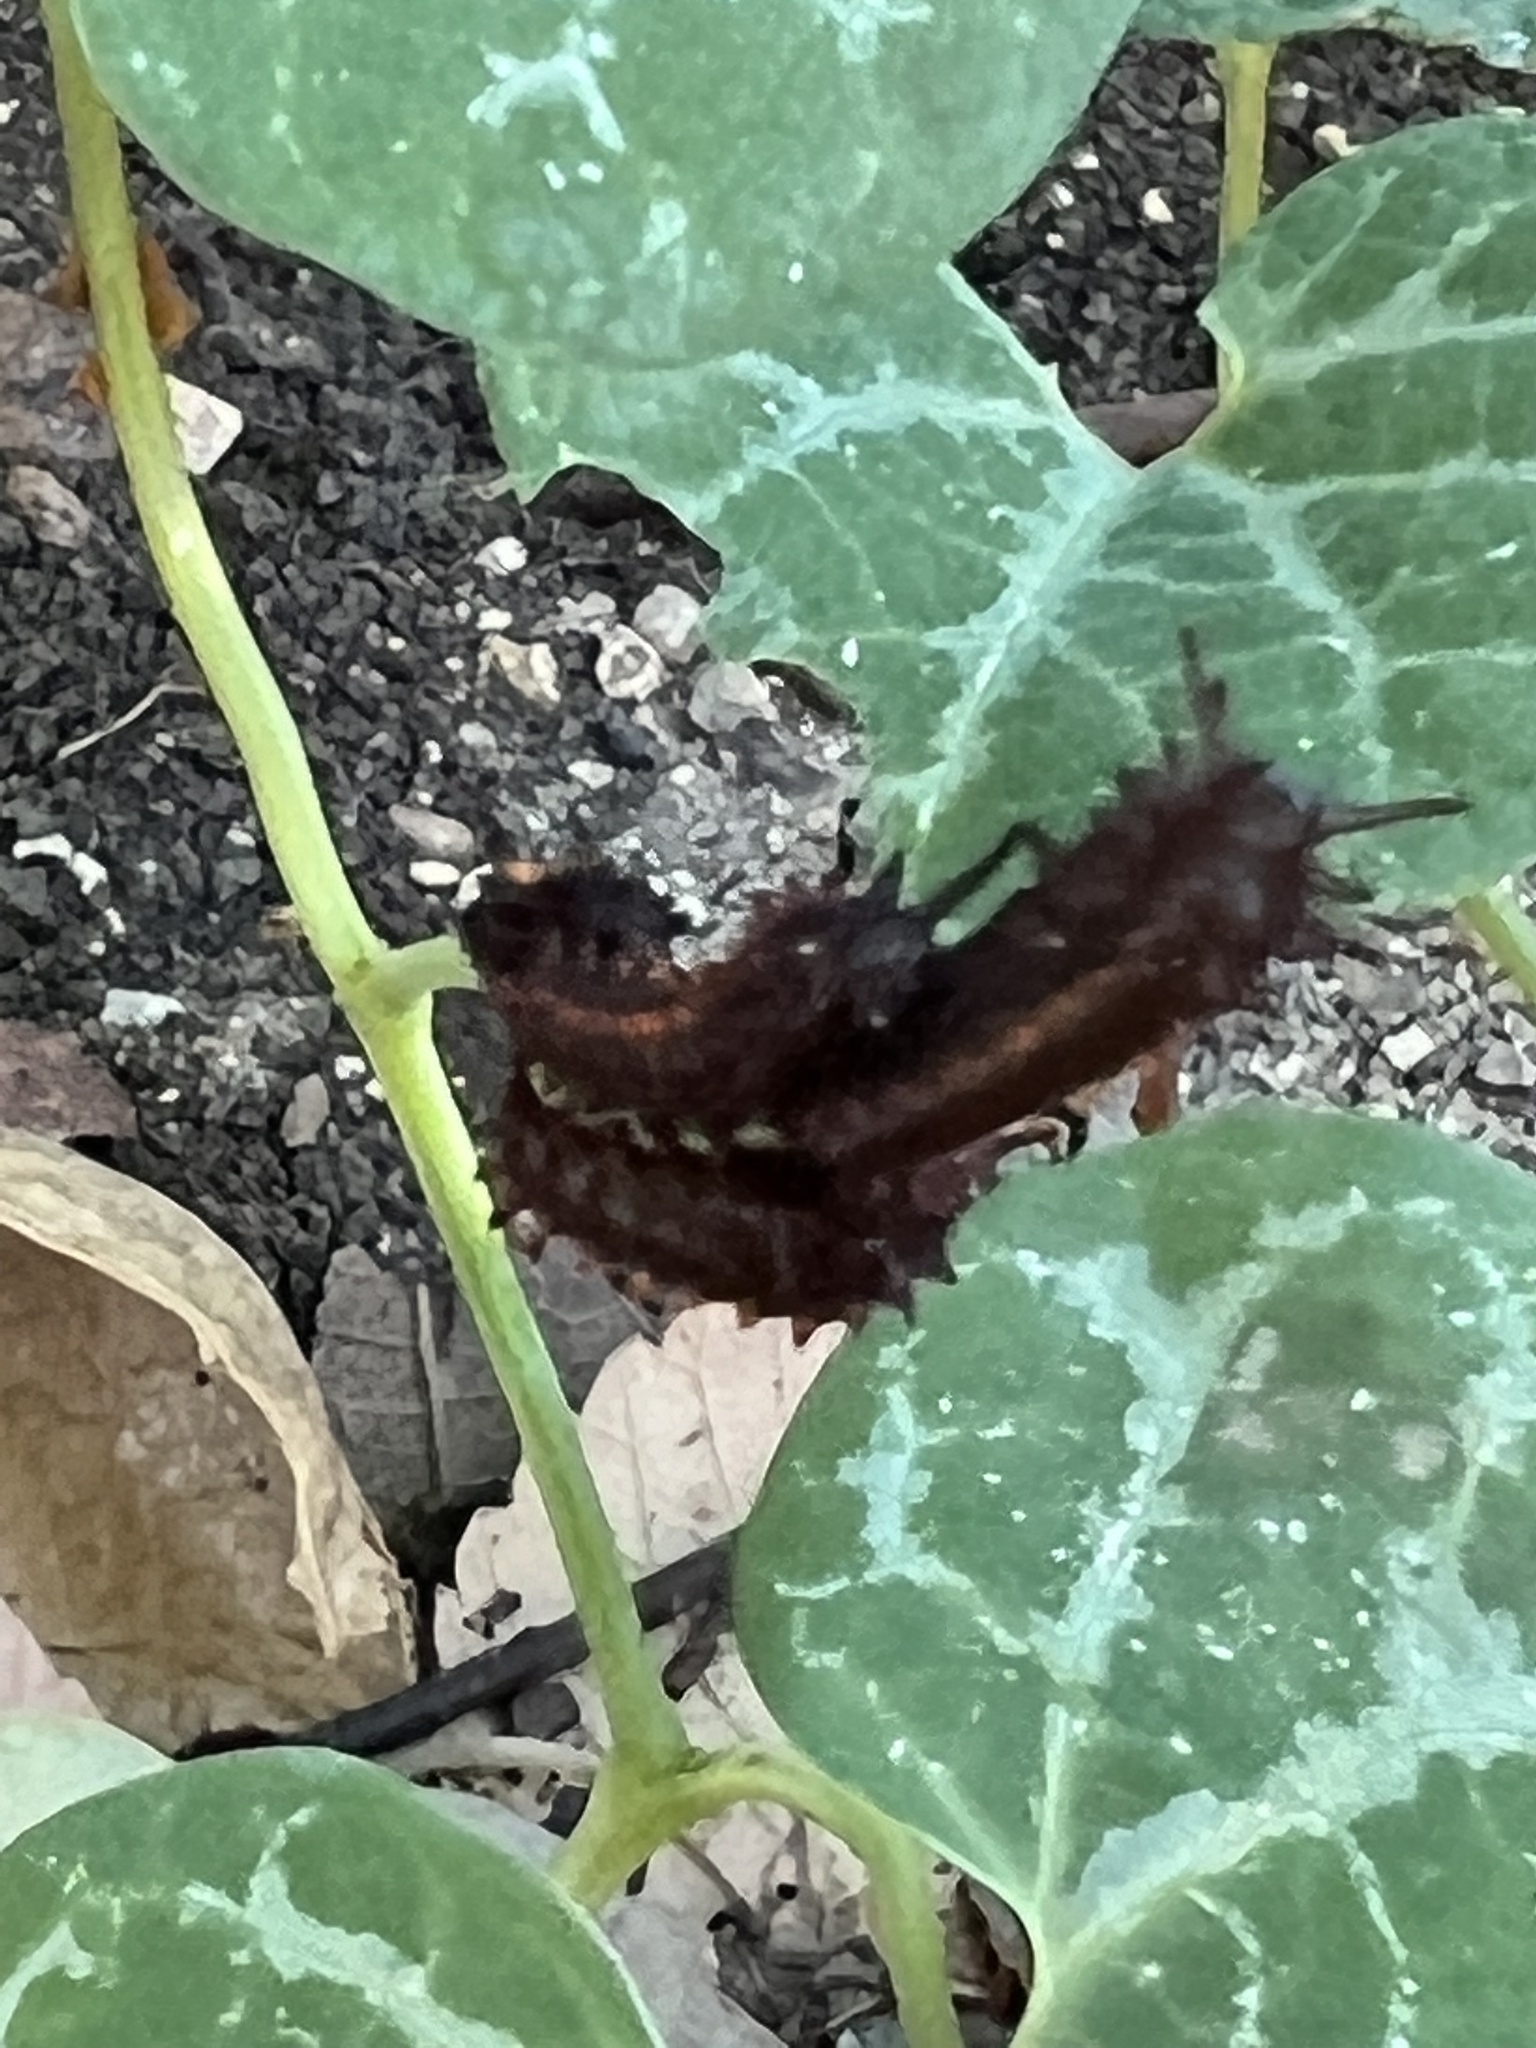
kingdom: Animalia
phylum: Arthropoda
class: Insecta
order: Lepidoptera
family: Papilionidae
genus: Battus
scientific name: Battus philenor
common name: Pipevine swallowtail
